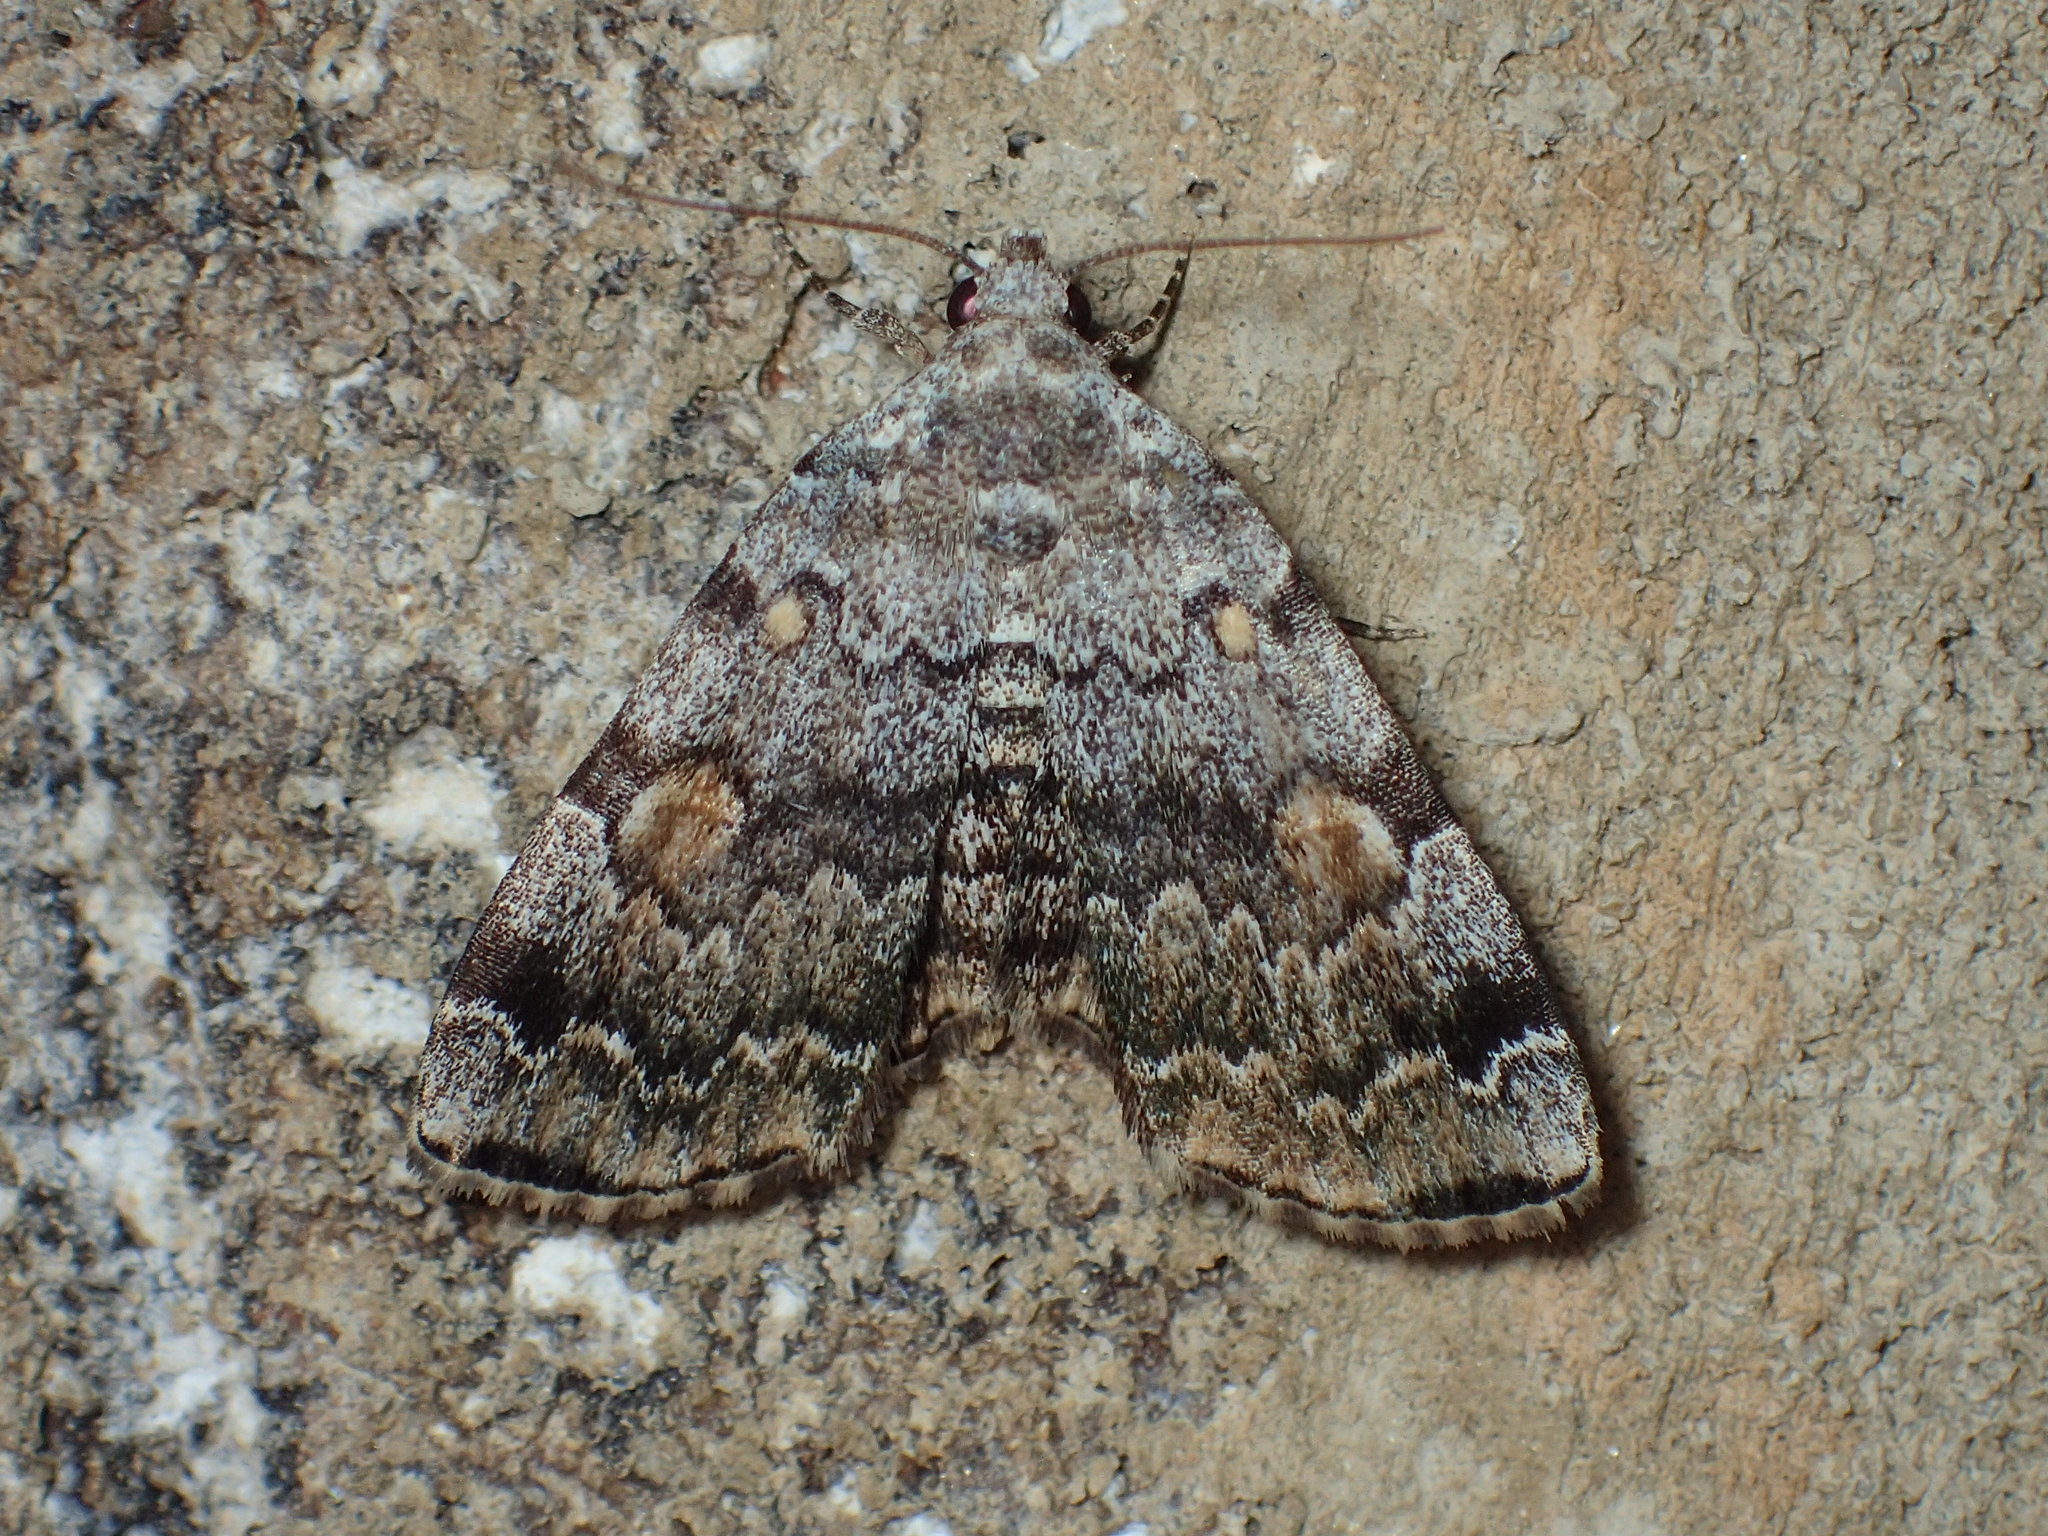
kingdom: Animalia
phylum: Arthropoda
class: Insecta
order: Lepidoptera
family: Erebidae
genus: Idia
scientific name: Idia americalis
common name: American idia moth
